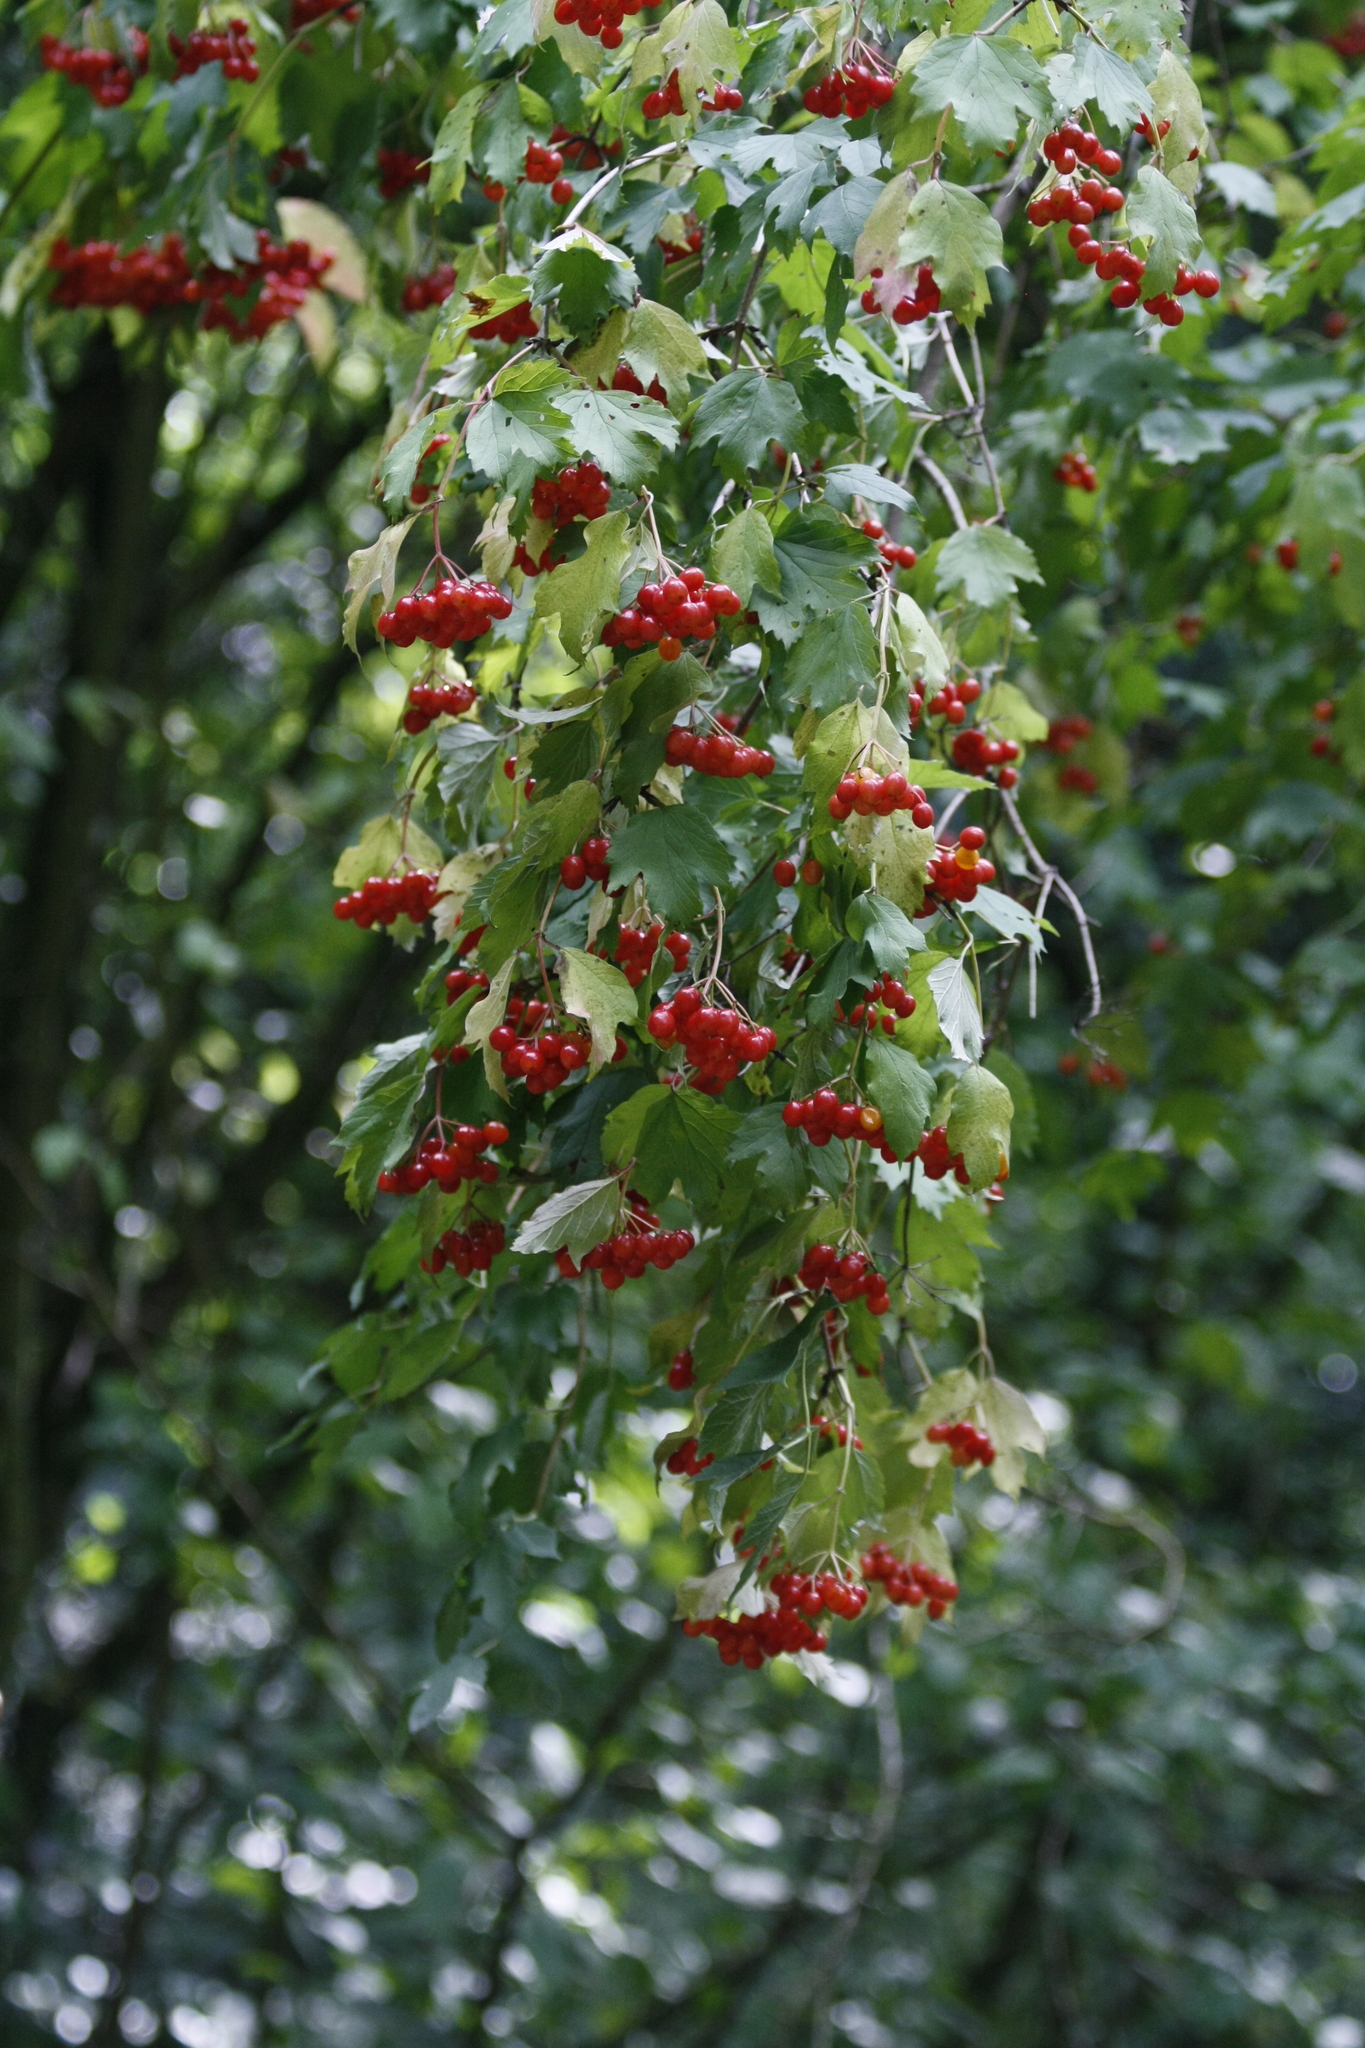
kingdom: Plantae
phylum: Tracheophyta
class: Magnoliopsida
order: Dipsacales
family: Viburnaceae
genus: Viburnum
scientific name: Viburnum opulus
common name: Guelder-rose
